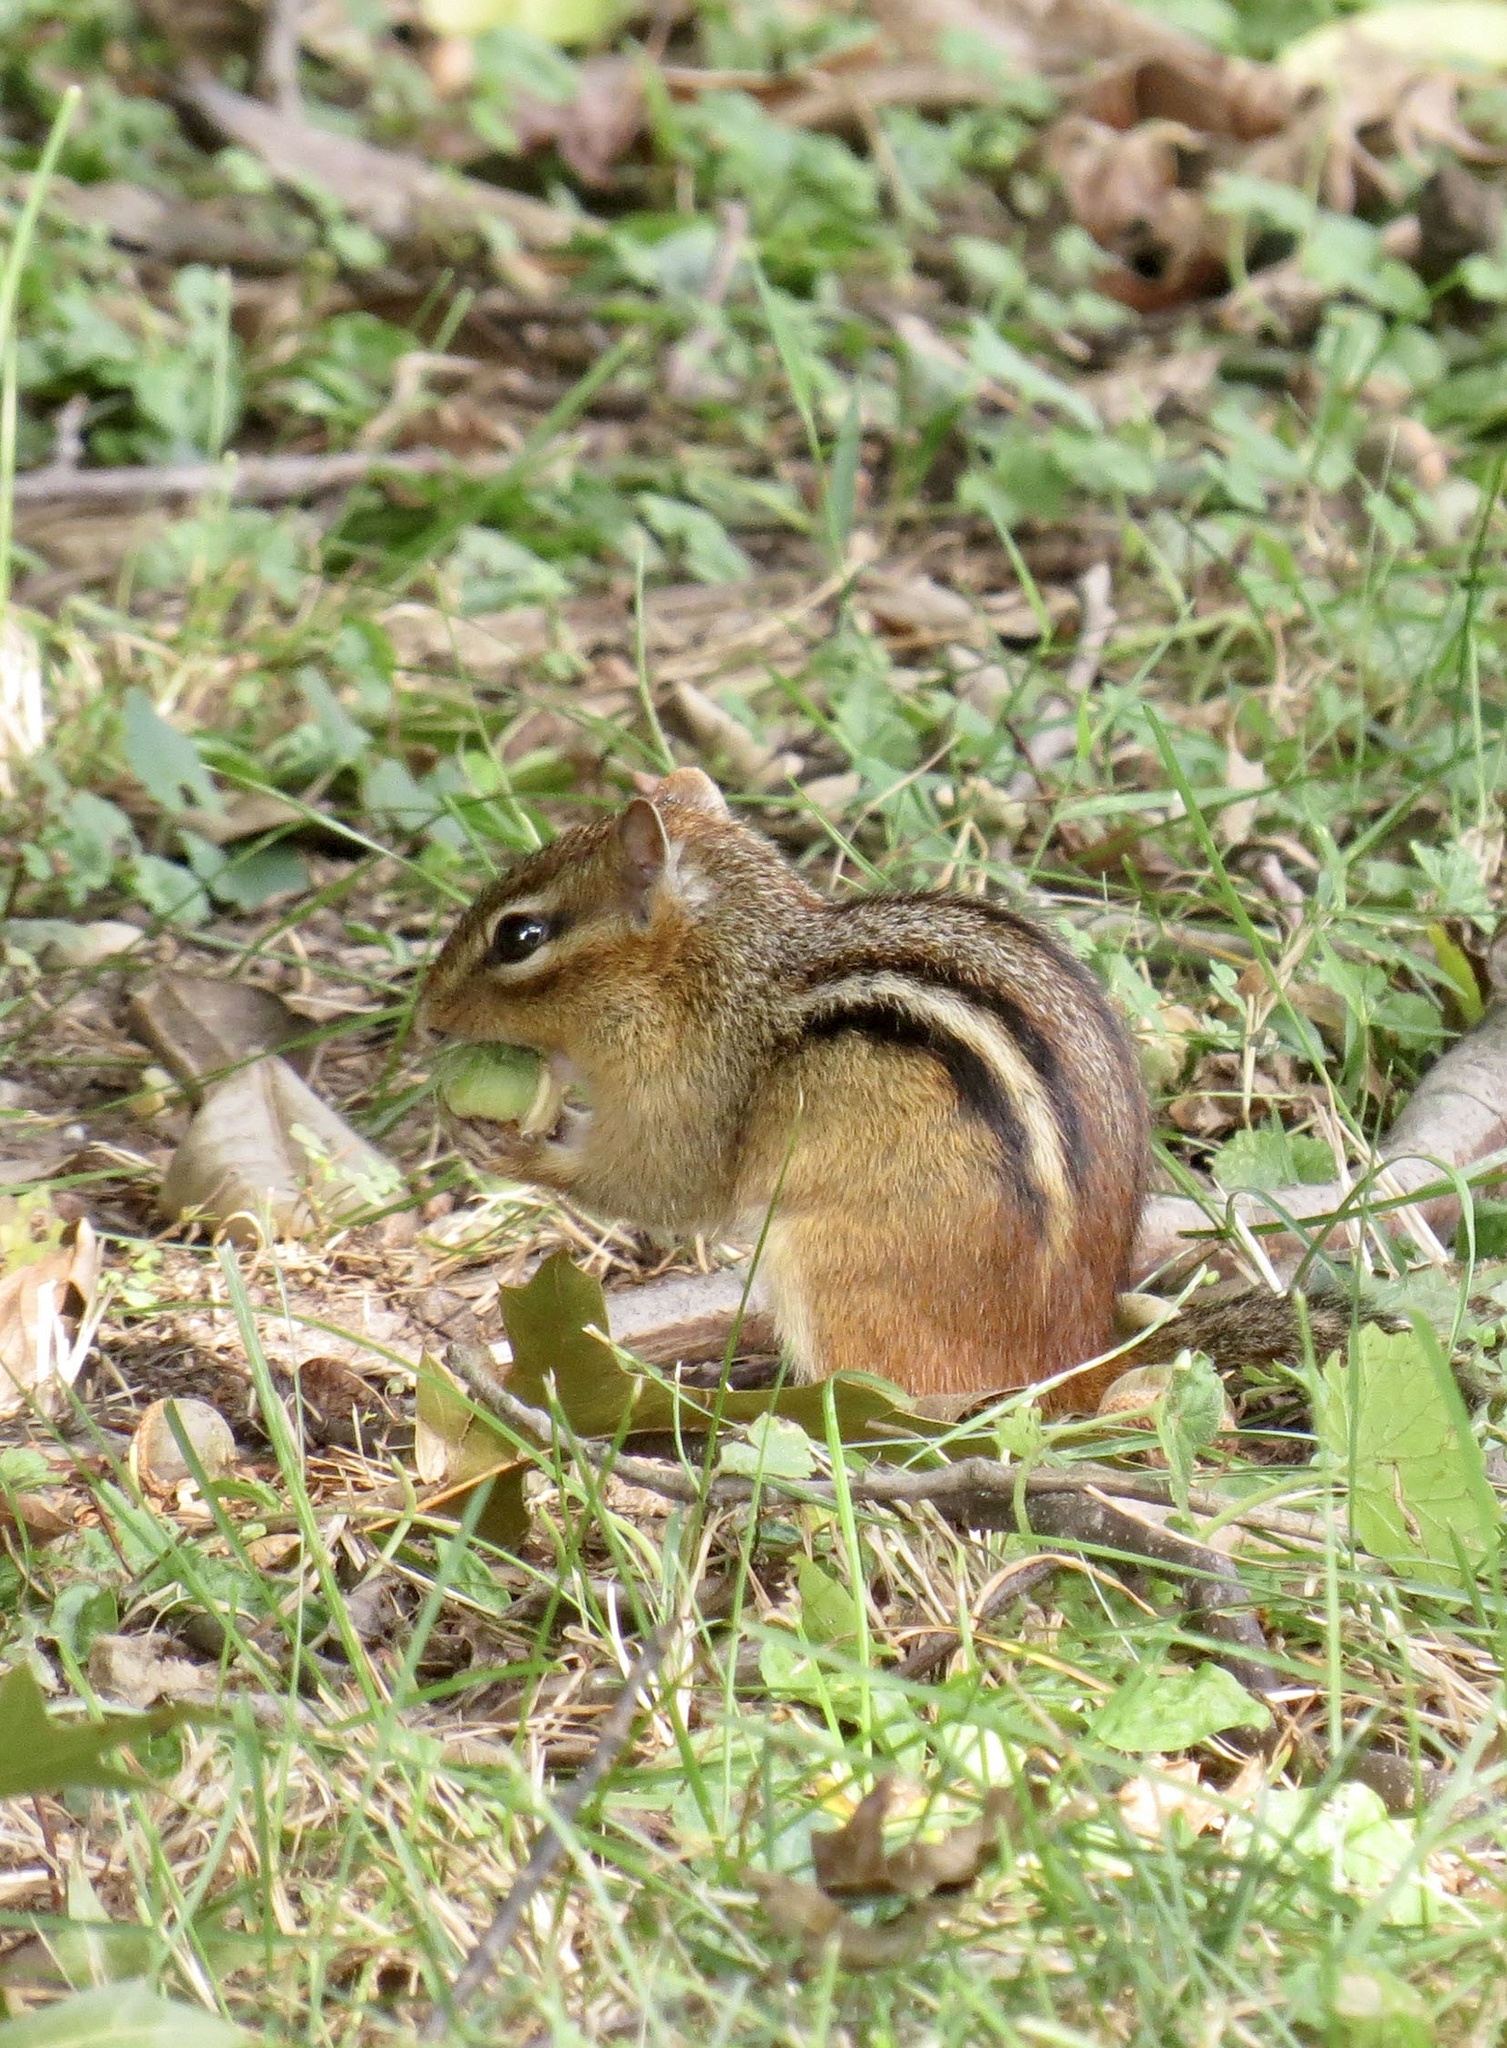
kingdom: Animalia
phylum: Chordata
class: Mammalia
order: Rodentia
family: Sciuridae
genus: Tamias
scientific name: Tamias striatus
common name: Eastern chipmunk
